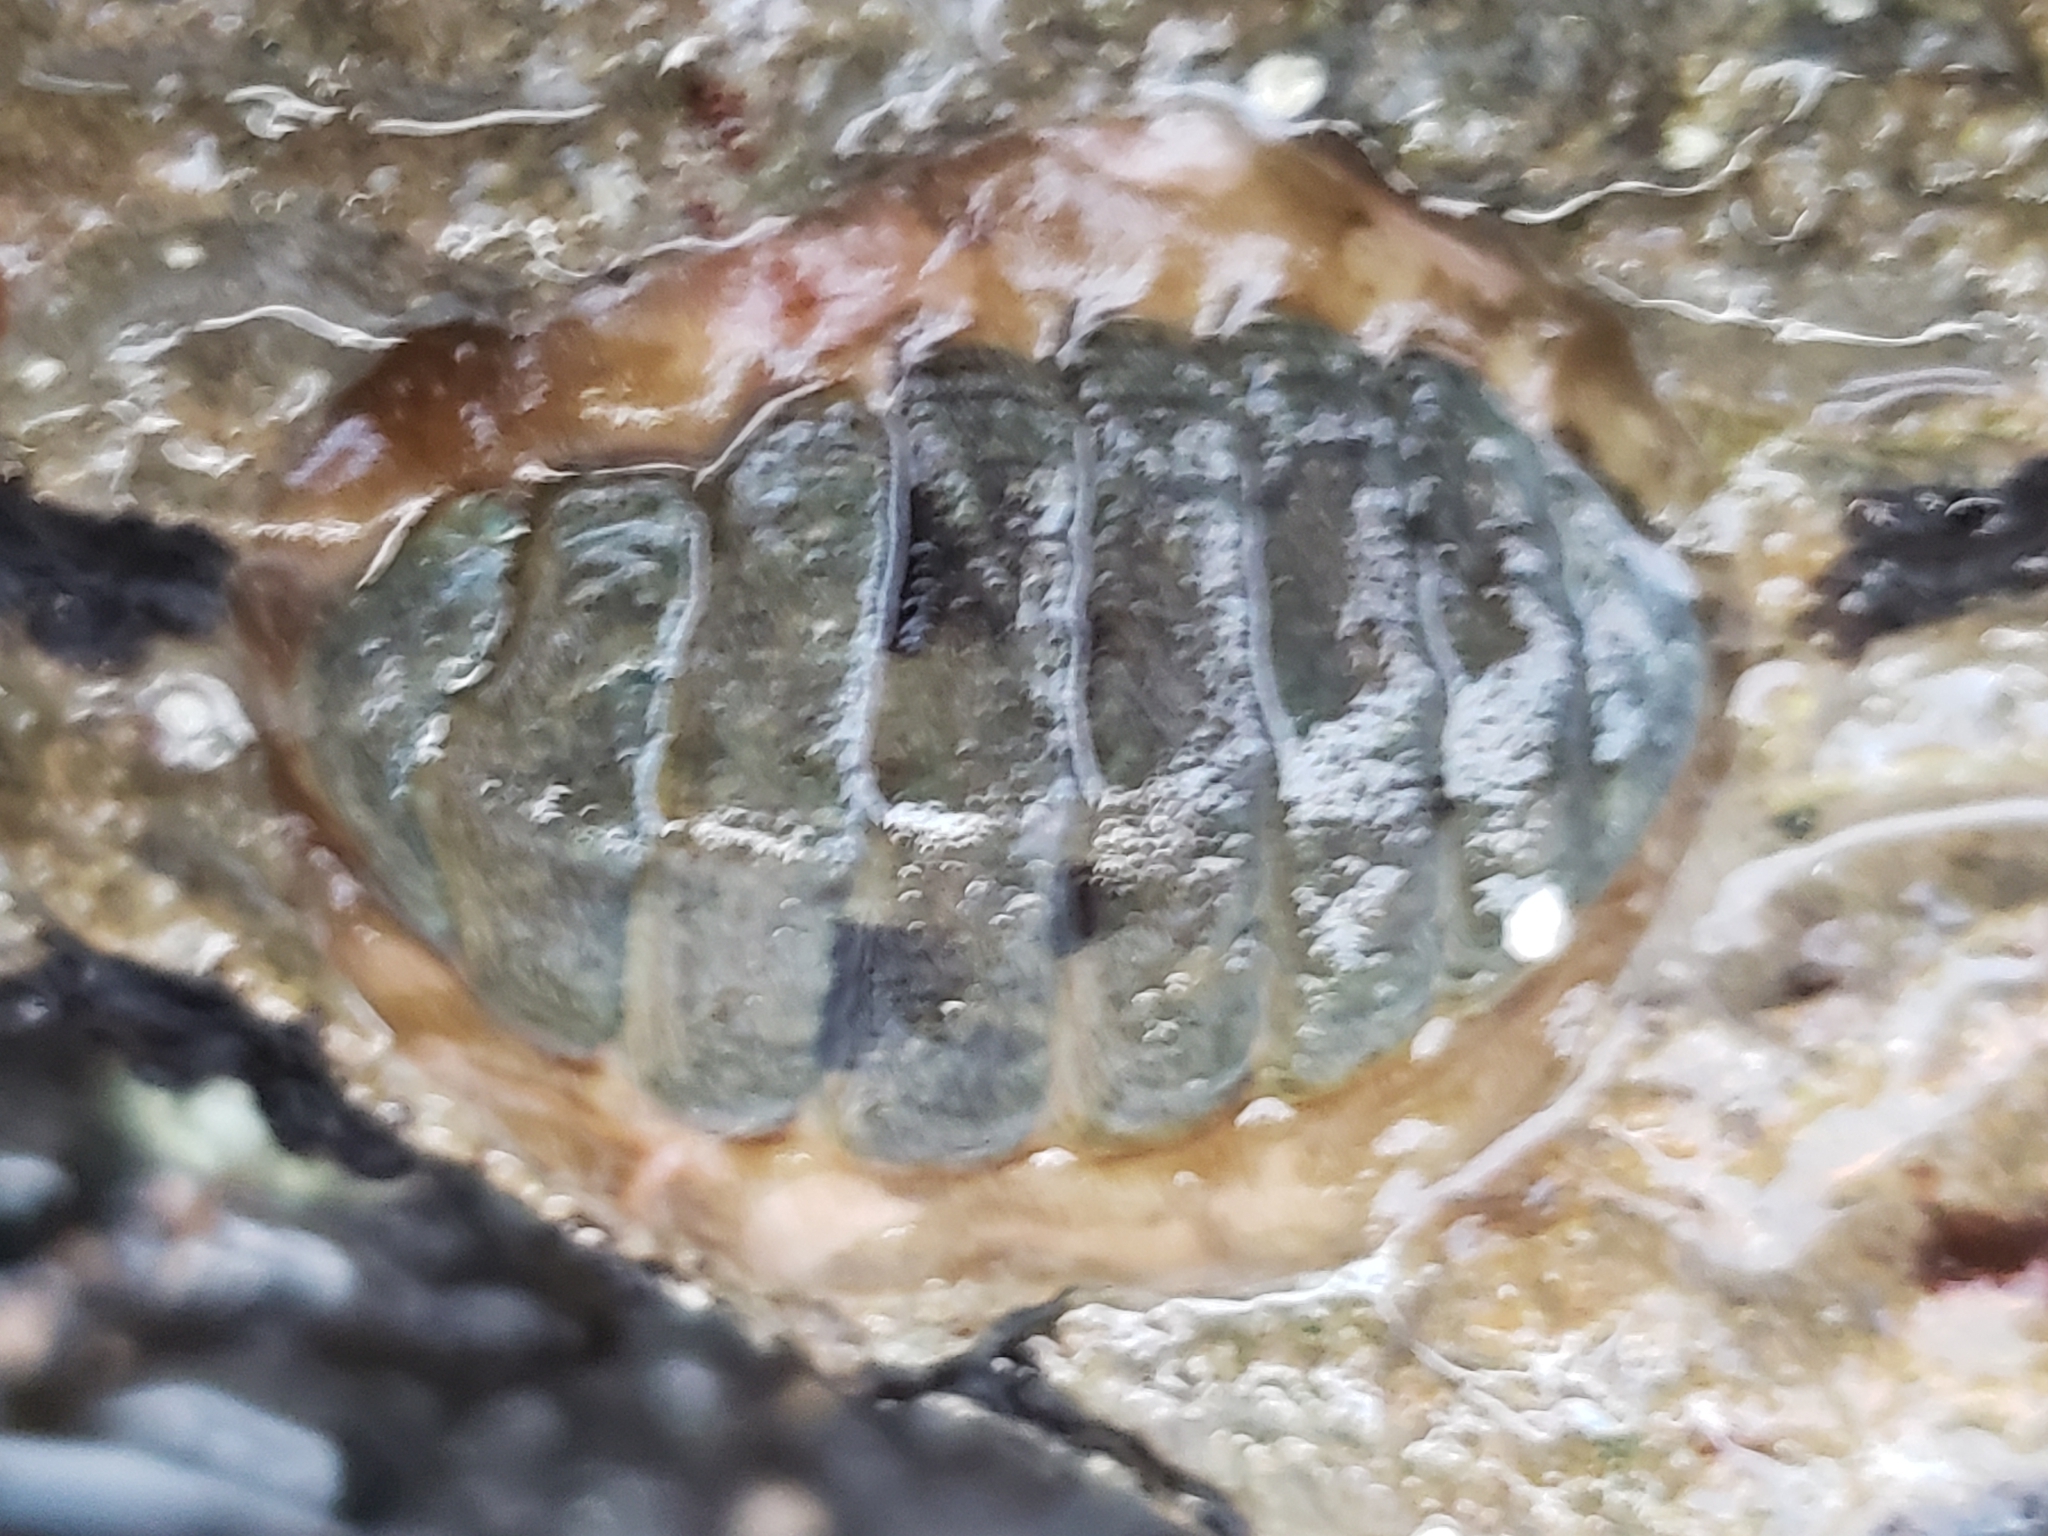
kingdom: Animalia
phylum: Mollusca
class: Polyplacophora
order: Chitonida
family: Tonicellidae
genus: Cyanoplax
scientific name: Cyanoplax hartwegii
